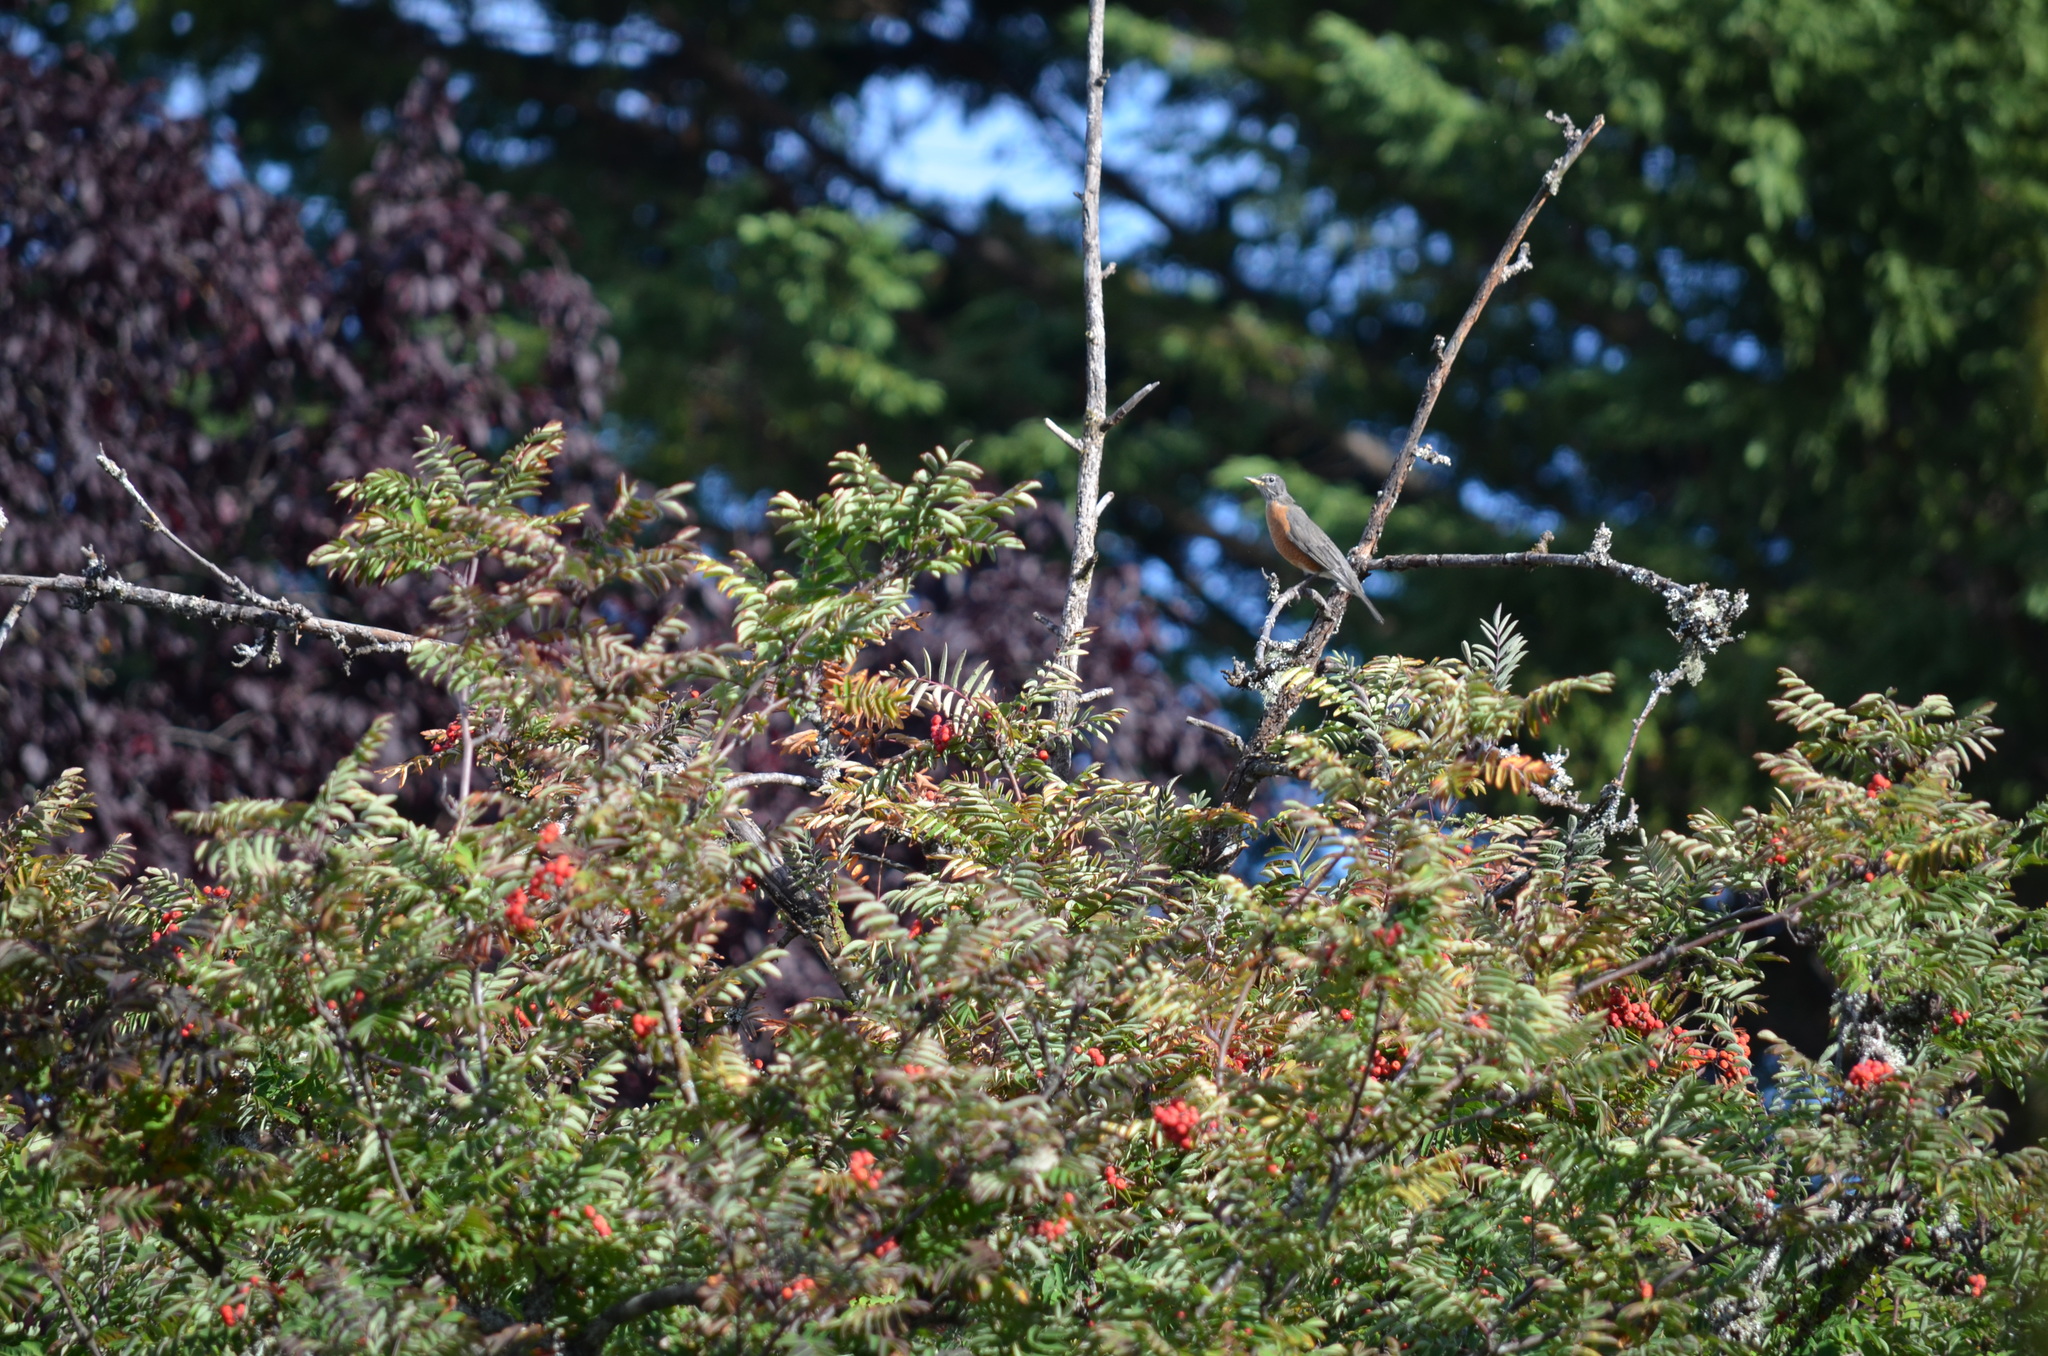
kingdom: Animalia
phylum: Chordata
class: Aves
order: Passeriformes
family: Turdidae
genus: Turdus
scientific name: Turdus migratorius
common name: American robin
